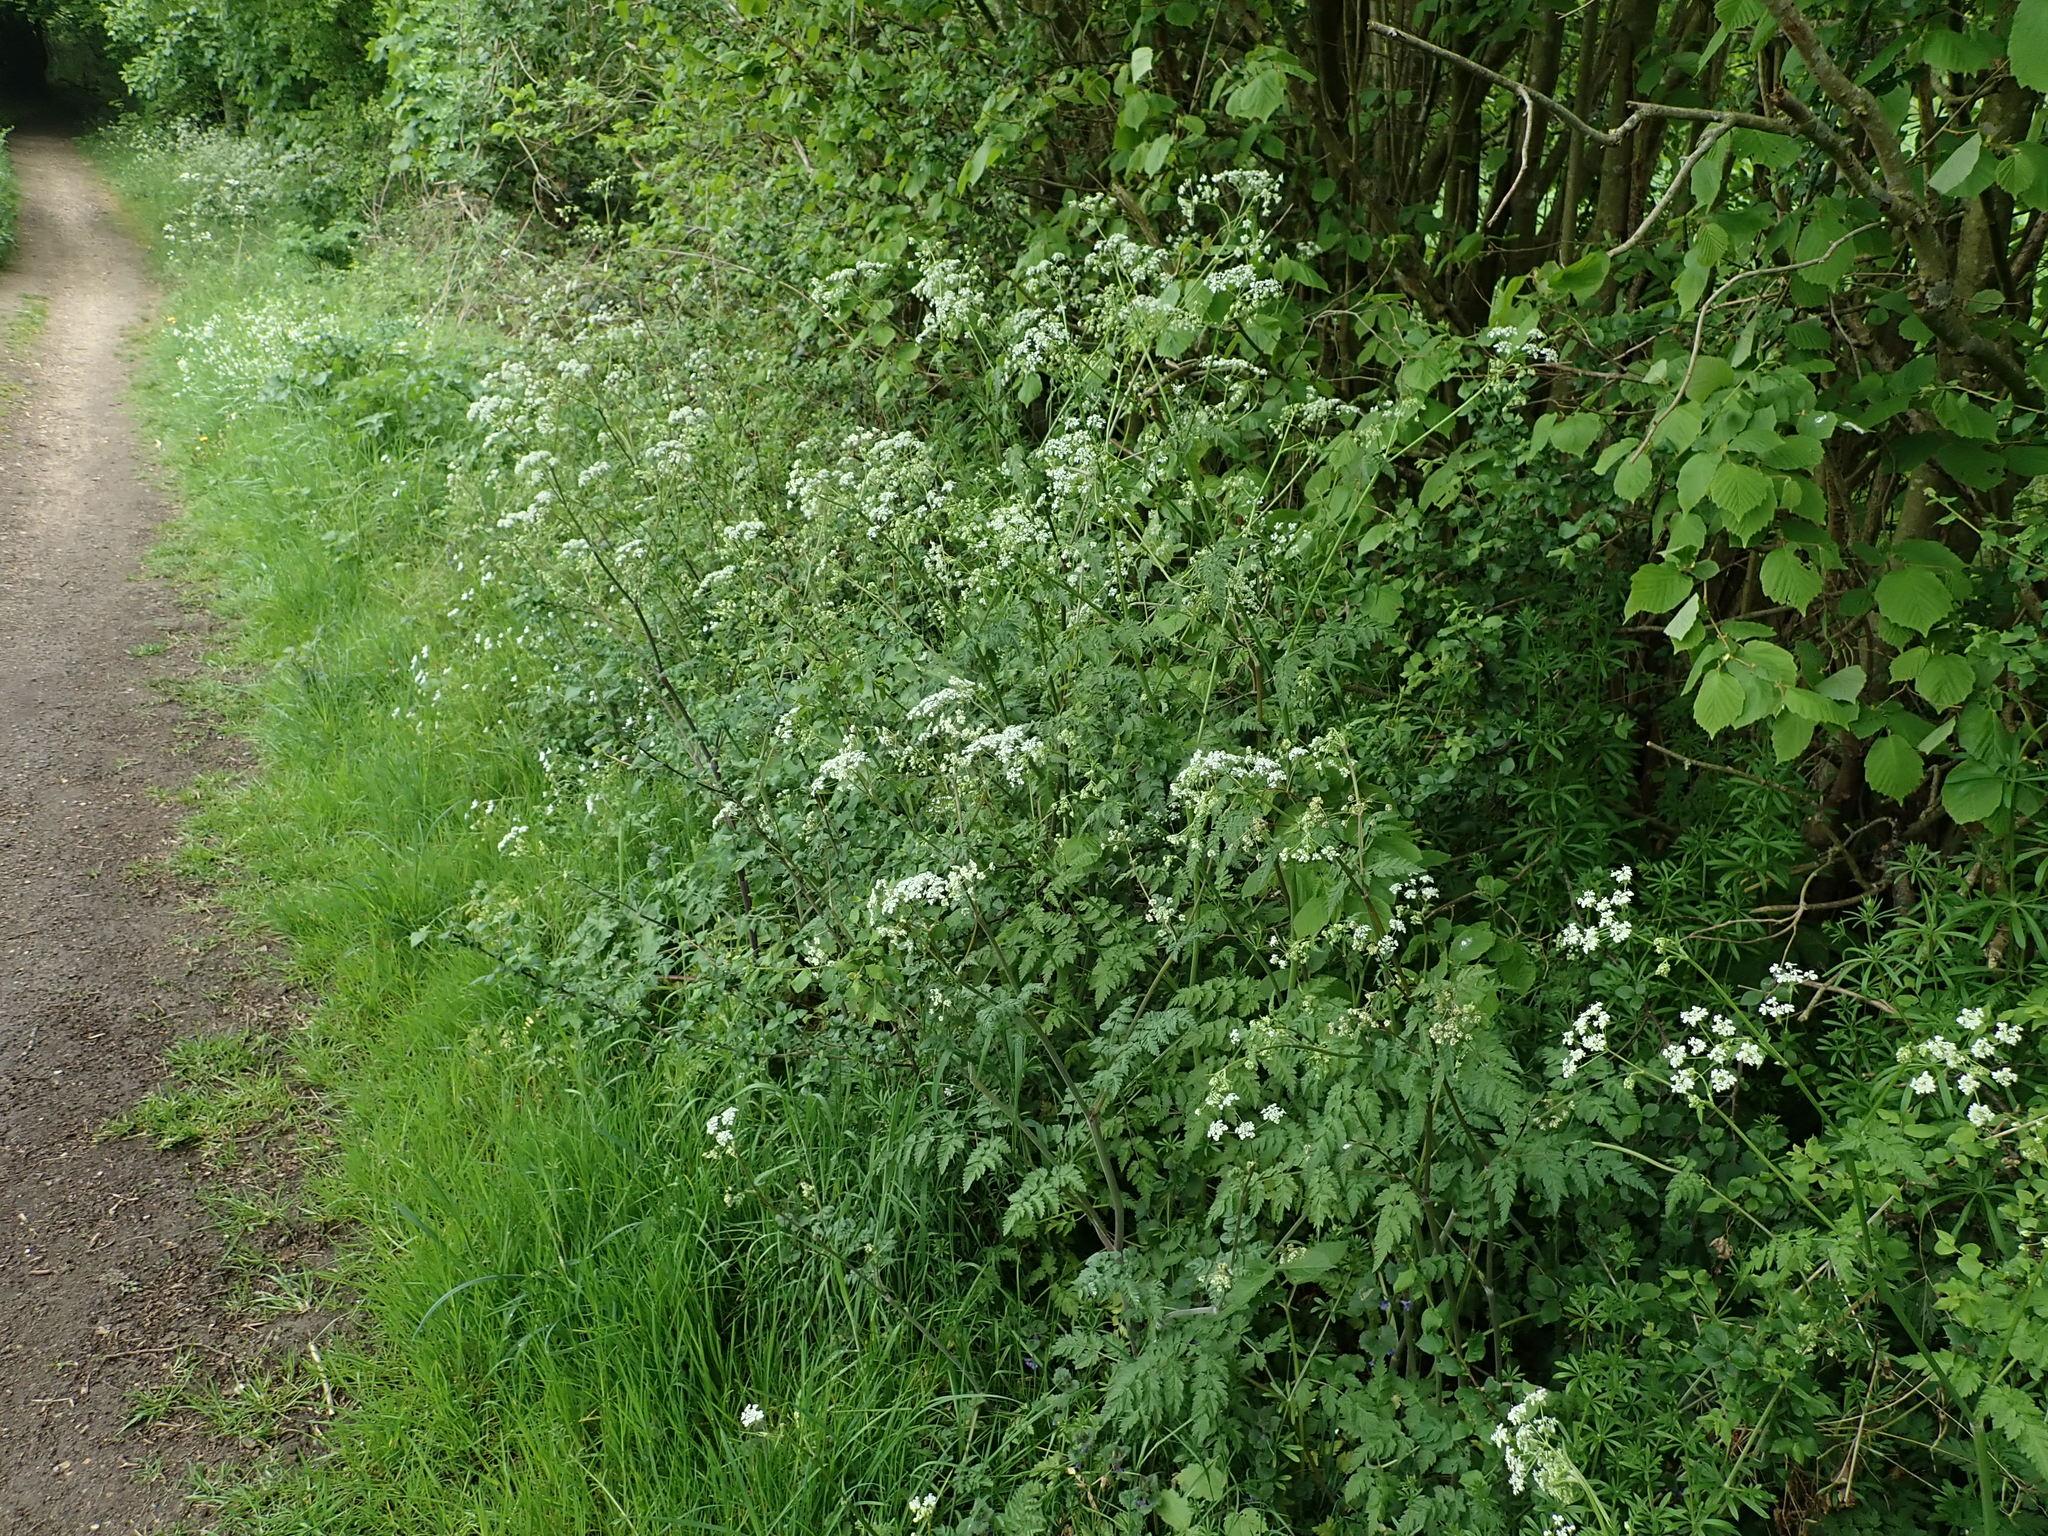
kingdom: Plantae
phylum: Tracheophyta
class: Magnoliopsida
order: Apiales
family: Apiaceae
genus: Anthriscus
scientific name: Anthriscus sylvestris
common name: Cow parsley
